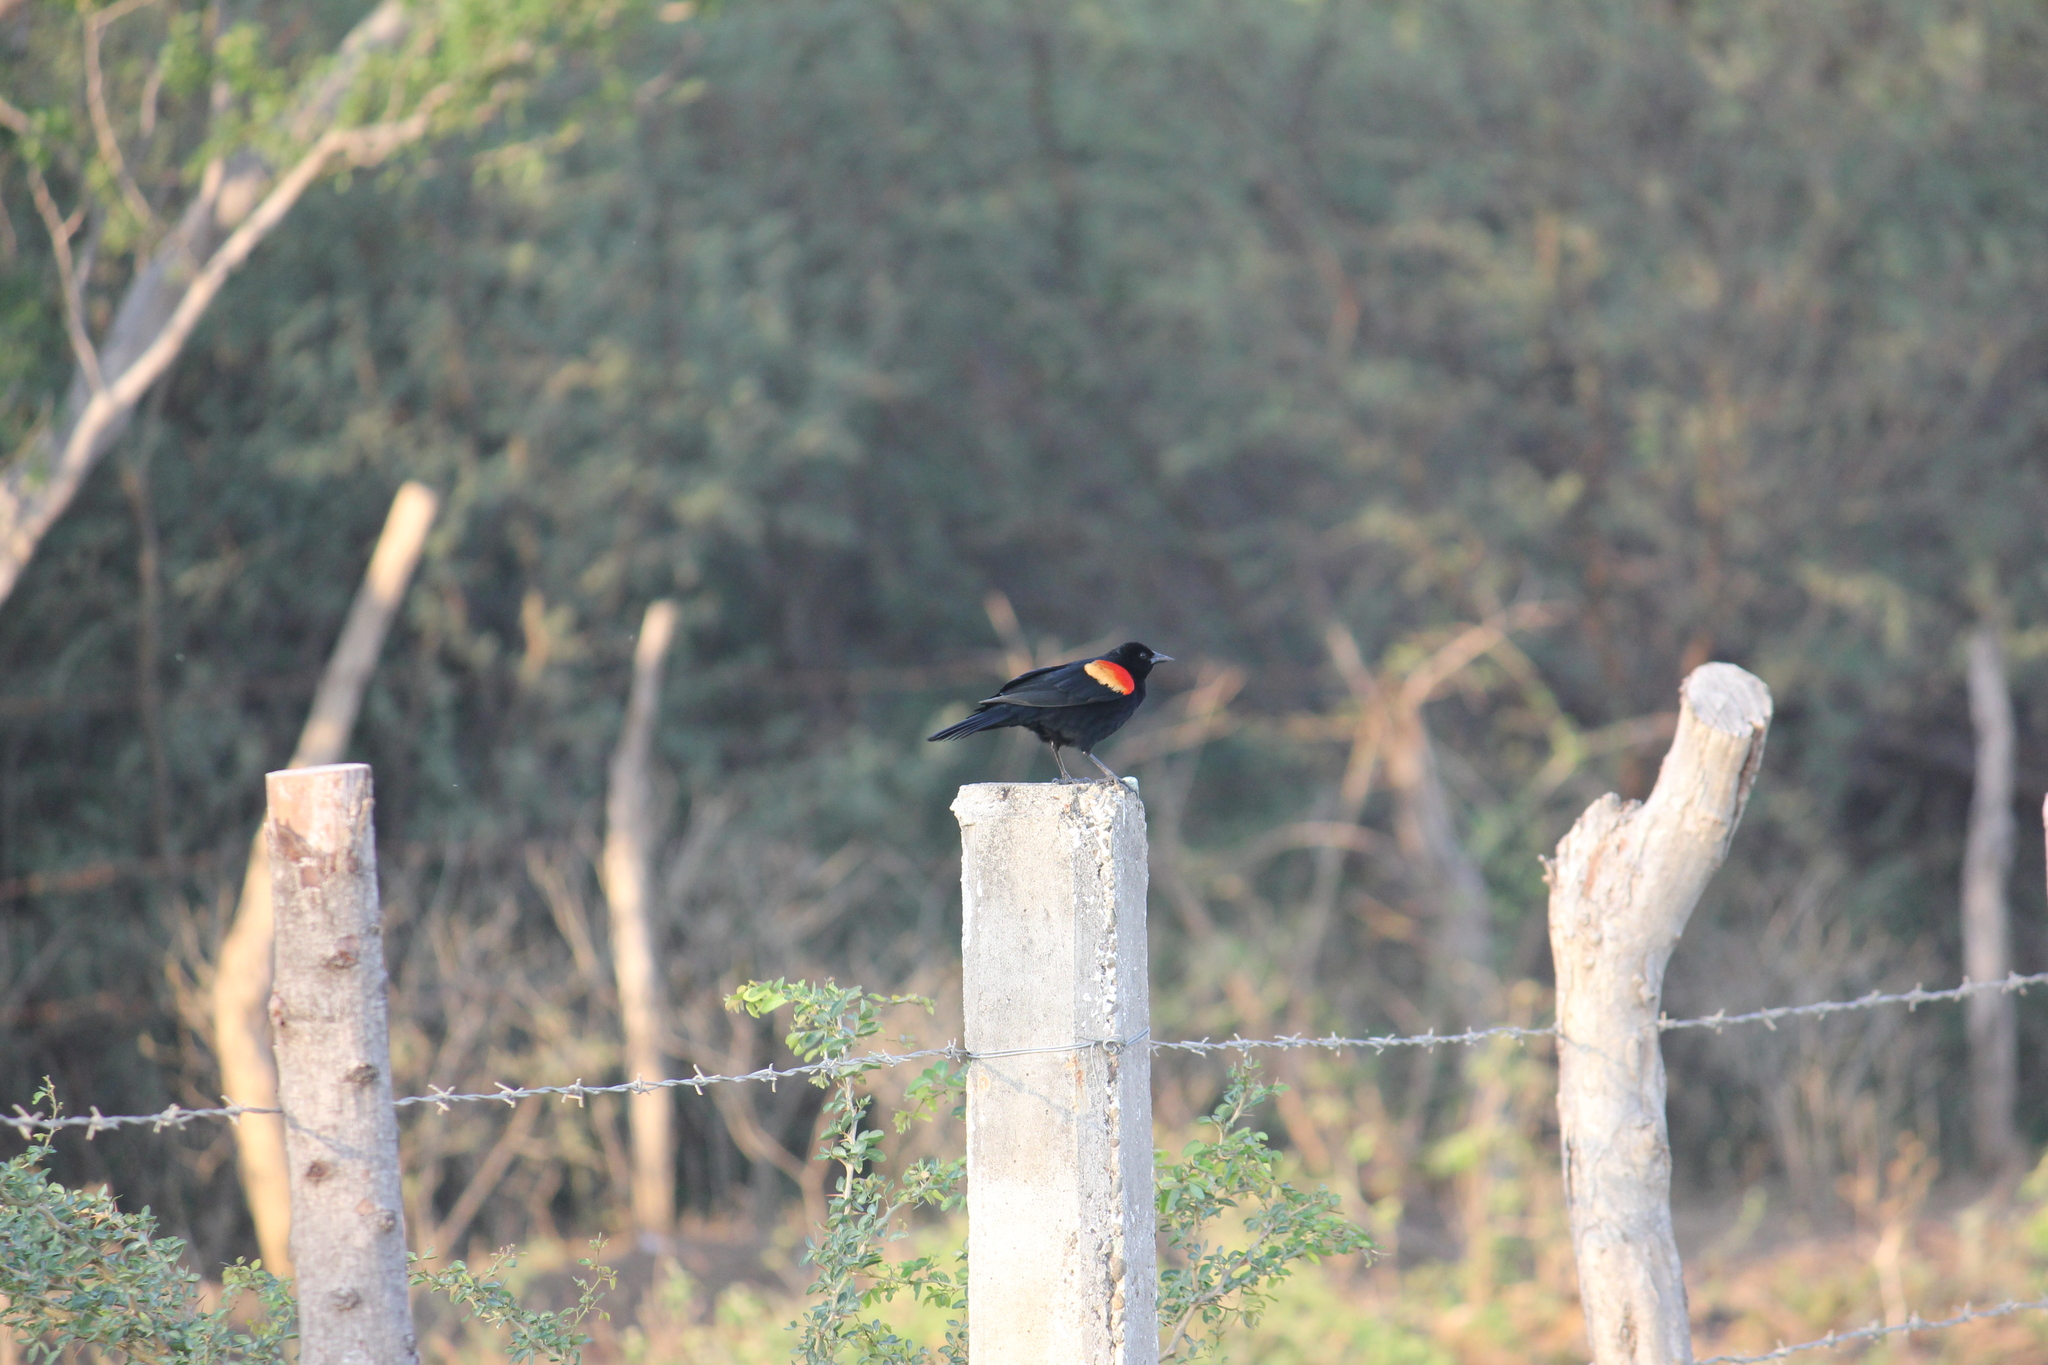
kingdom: Animalia
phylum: Chordata
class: Aves
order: Passeriformes
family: Icteridae
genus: Agelaius
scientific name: Agelaius phoeniceus
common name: Red-winged blackbird
